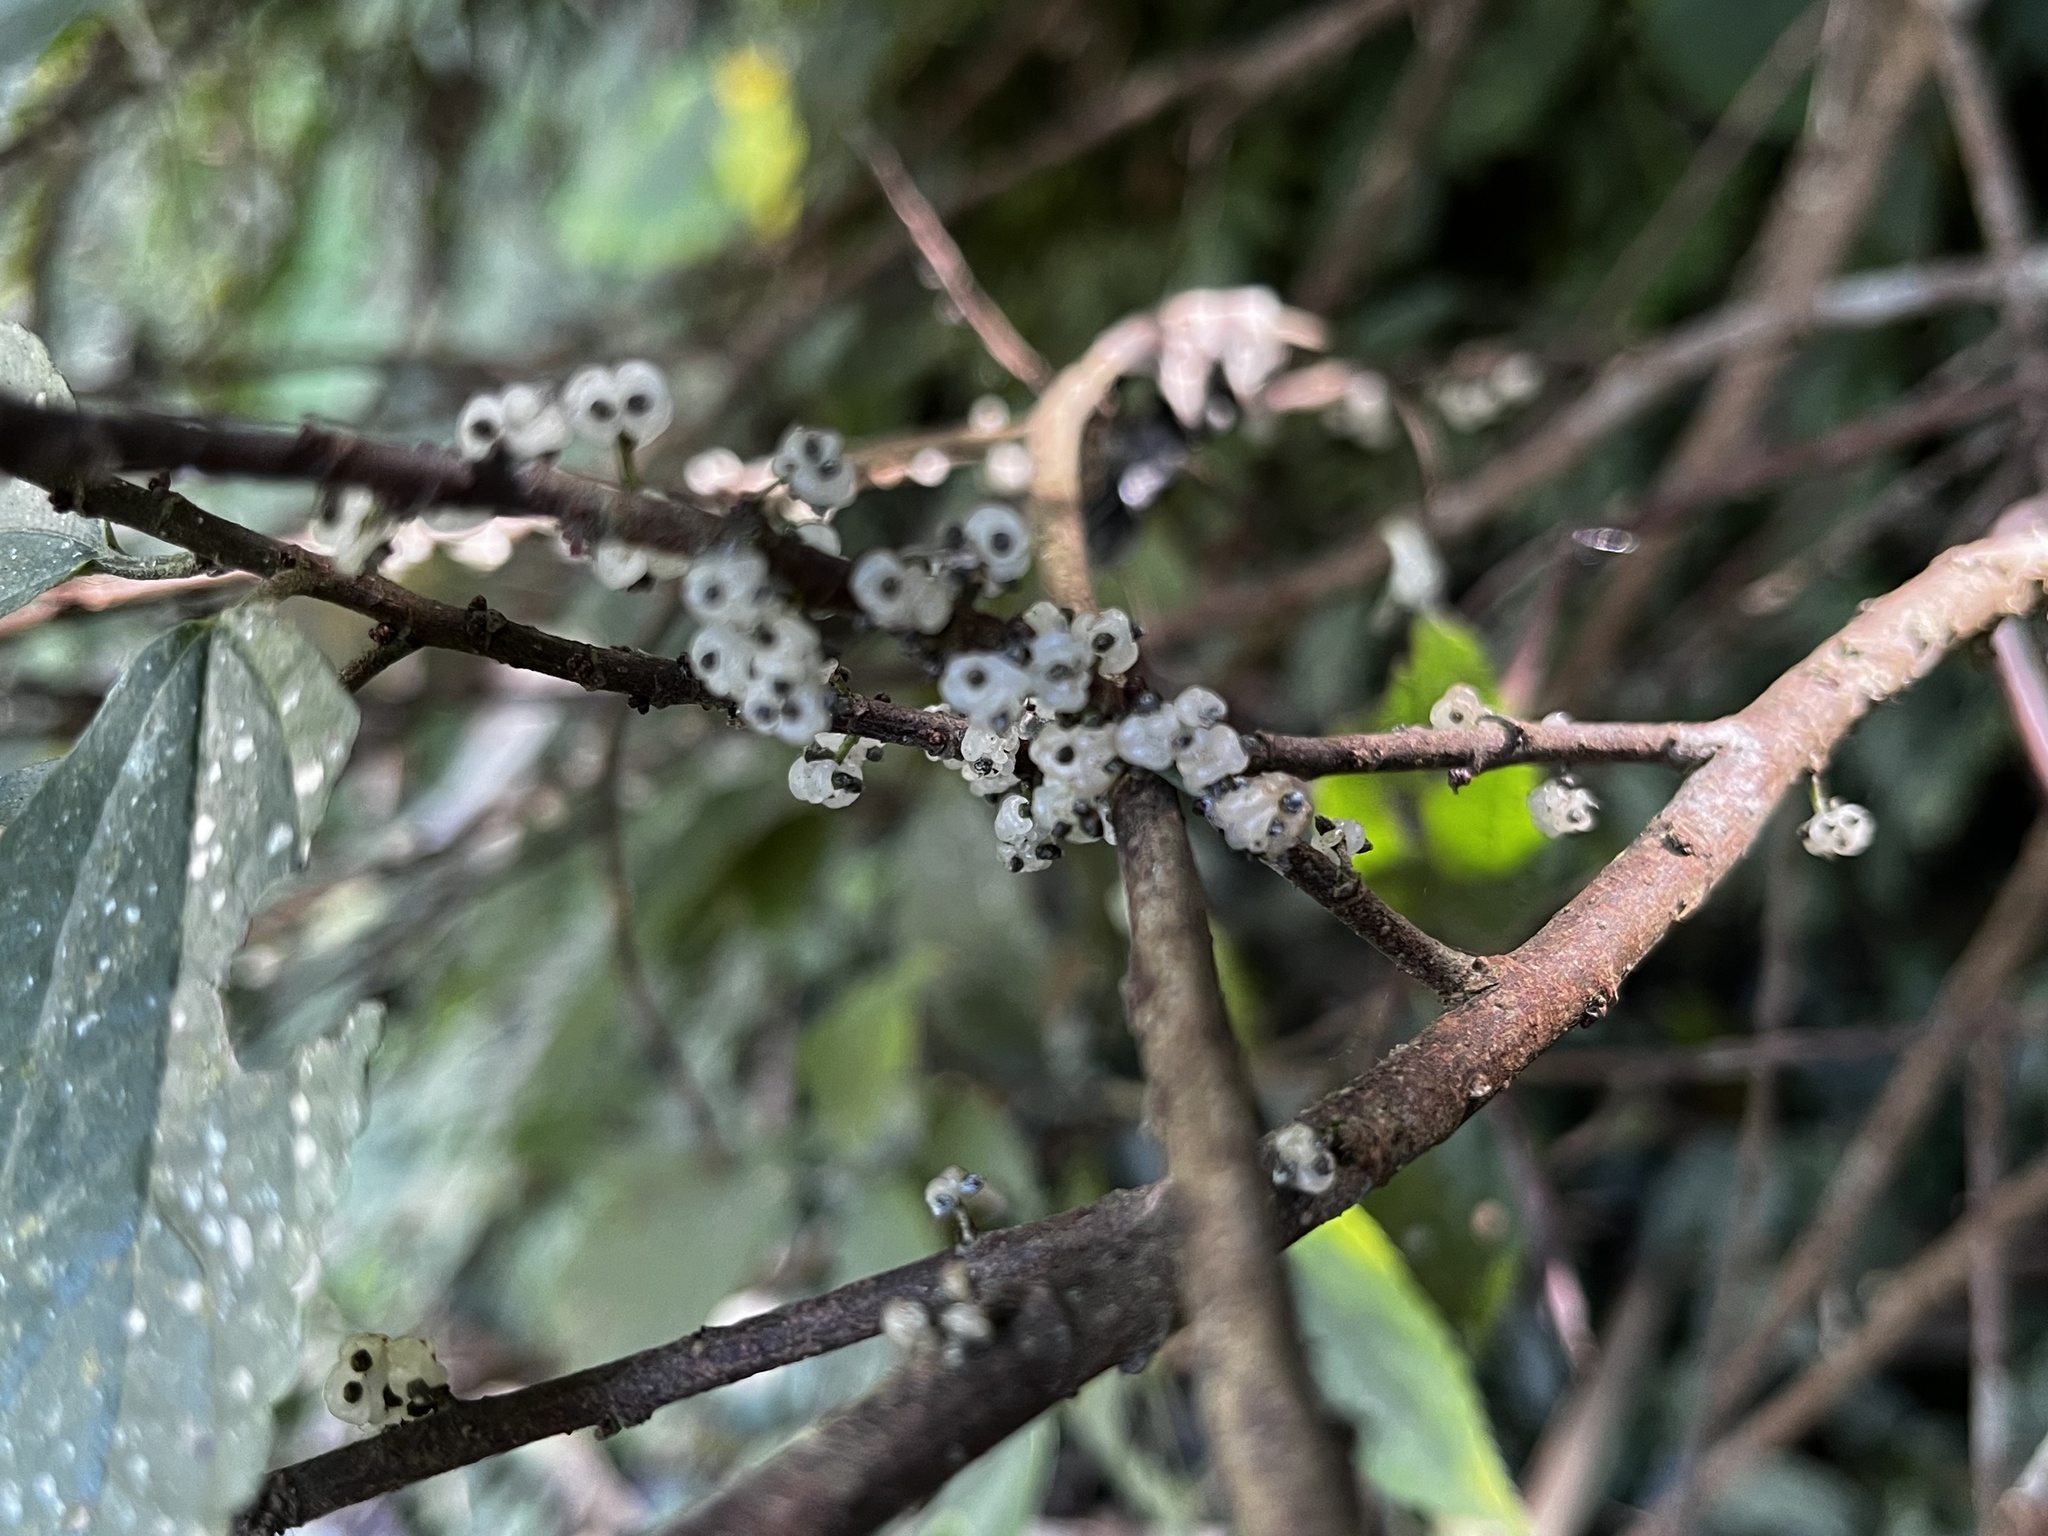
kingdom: Plantae
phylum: Tracheophyta
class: Magnoliopsida
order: Rosales
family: Urticaceae
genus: Oreocnide
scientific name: Oreocnide pedunculata
